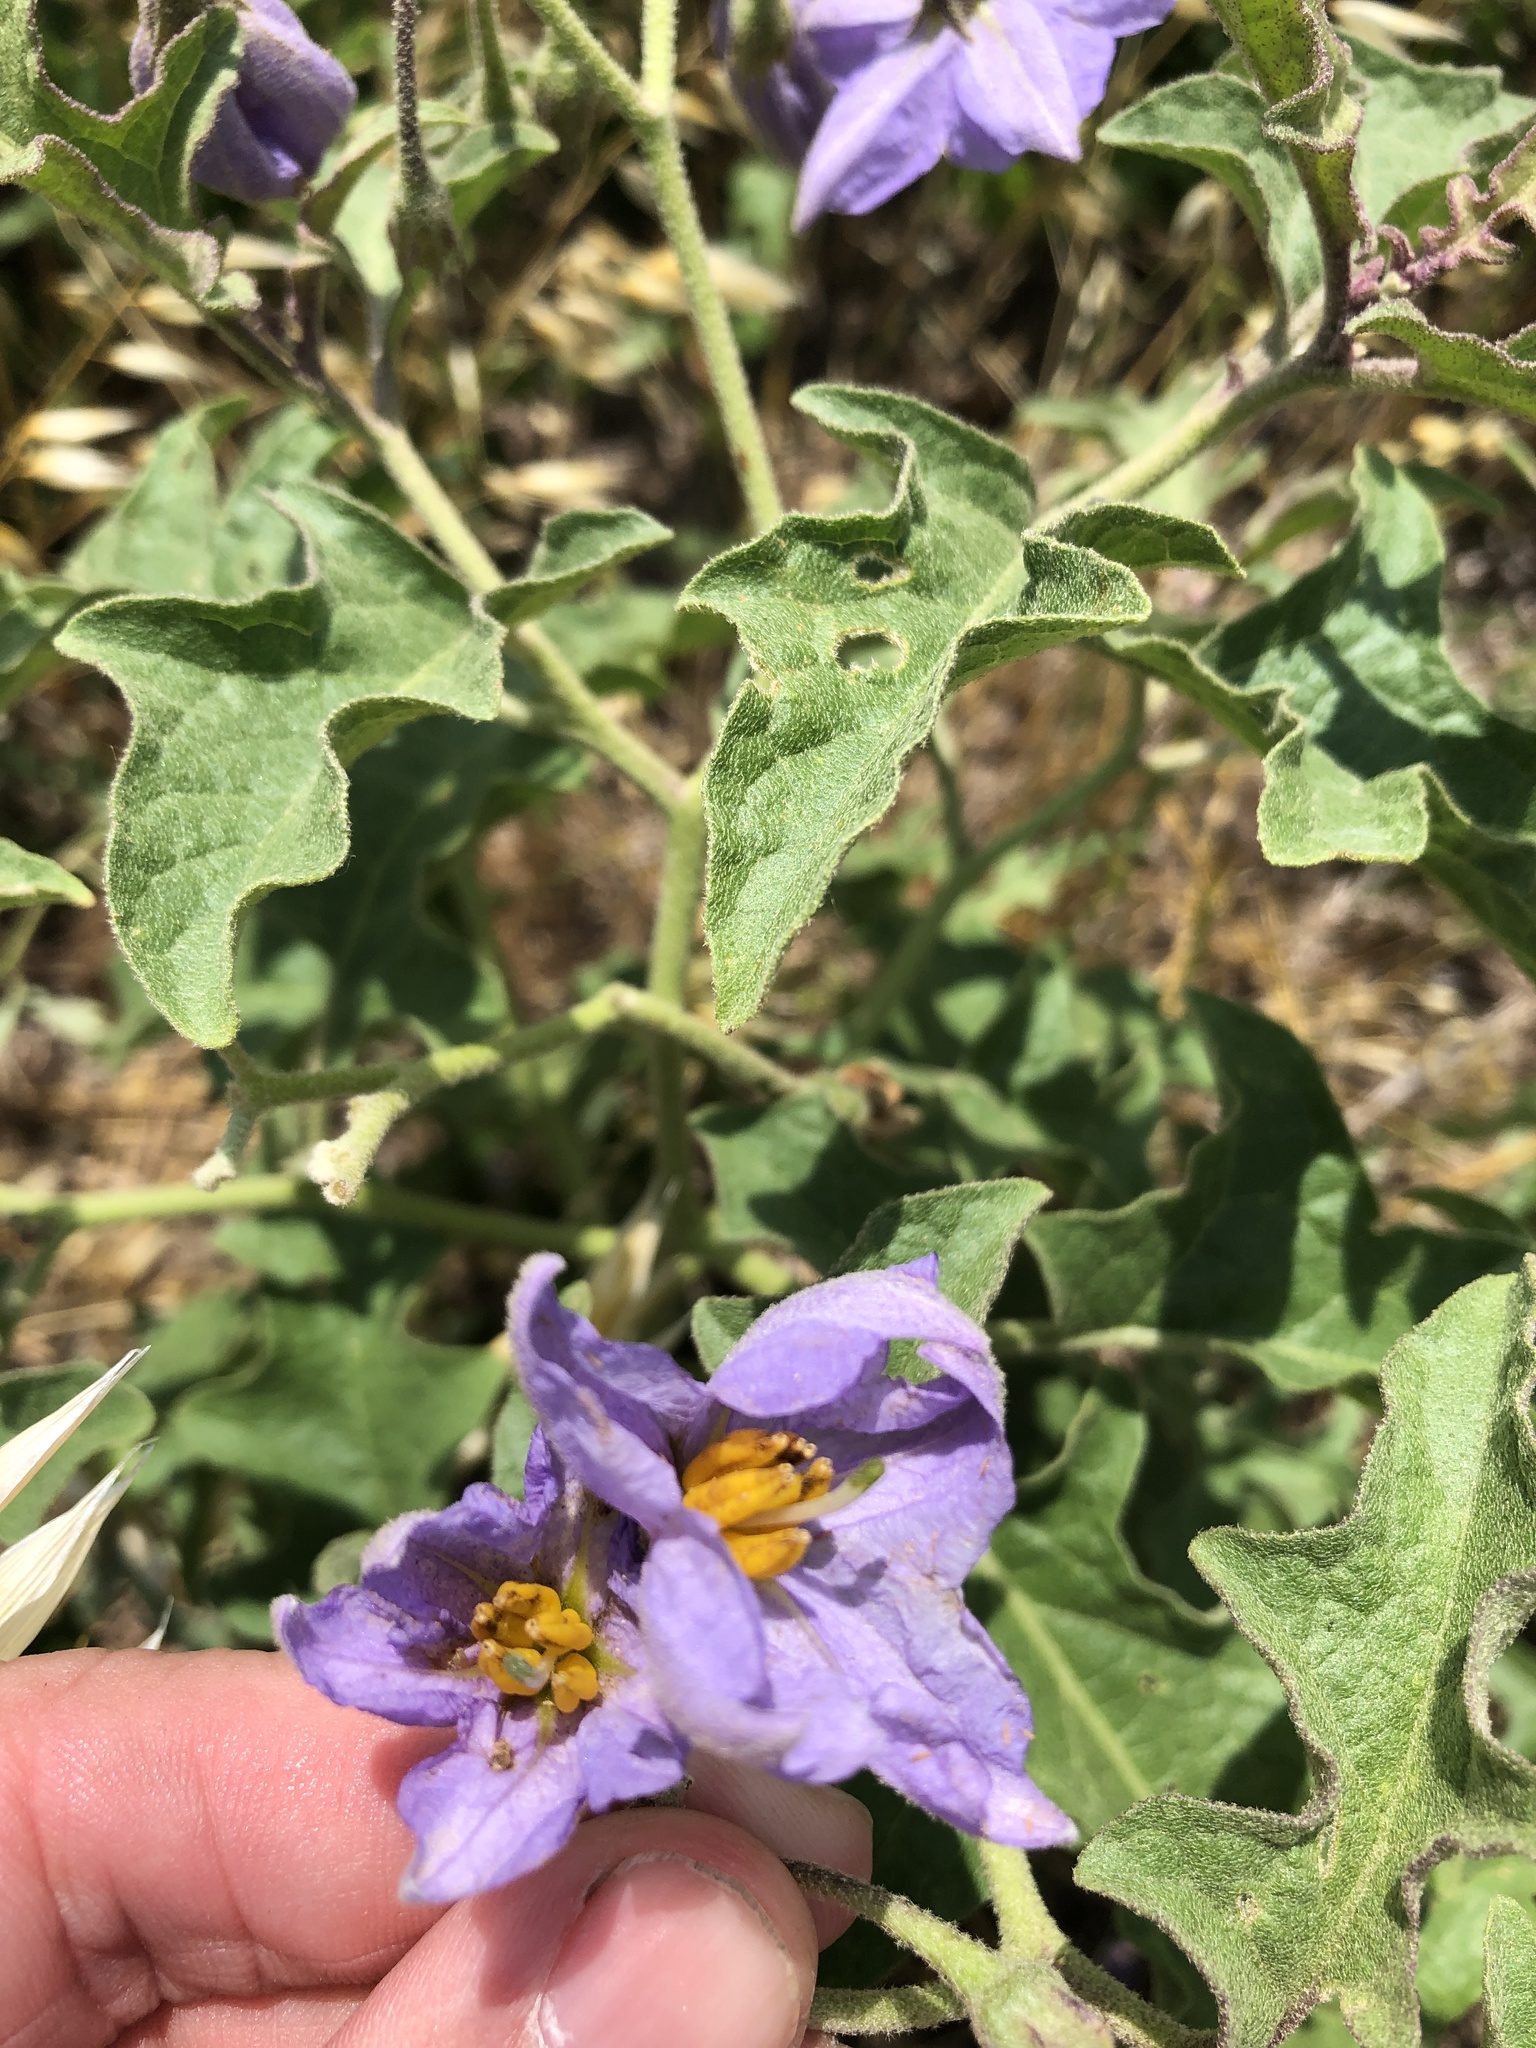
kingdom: Plantae
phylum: Tracheophyta
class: Magnoliopsida
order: Solanales
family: Solanaceae
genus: Solanum
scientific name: Solanum dimidiatum
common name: Carolina horse-nettle
